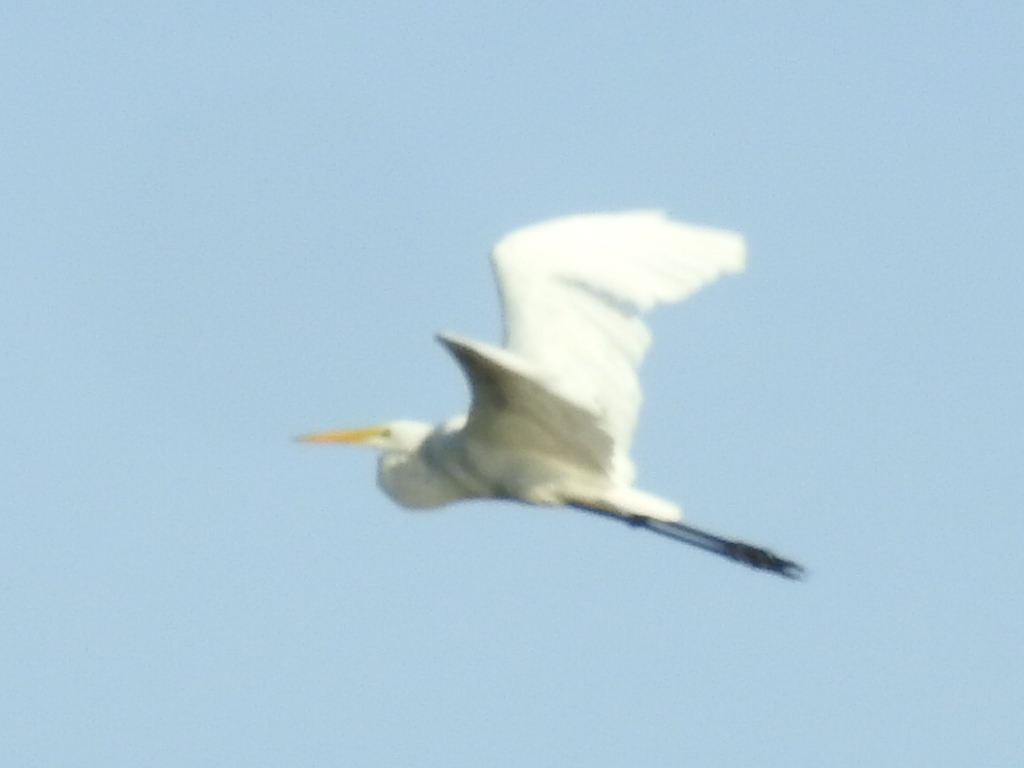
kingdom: Animalia
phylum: Chordata
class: Aves
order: Pelecaniformes
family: Ardeidae
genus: Ardea
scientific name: Ardea alba
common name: Great egret
